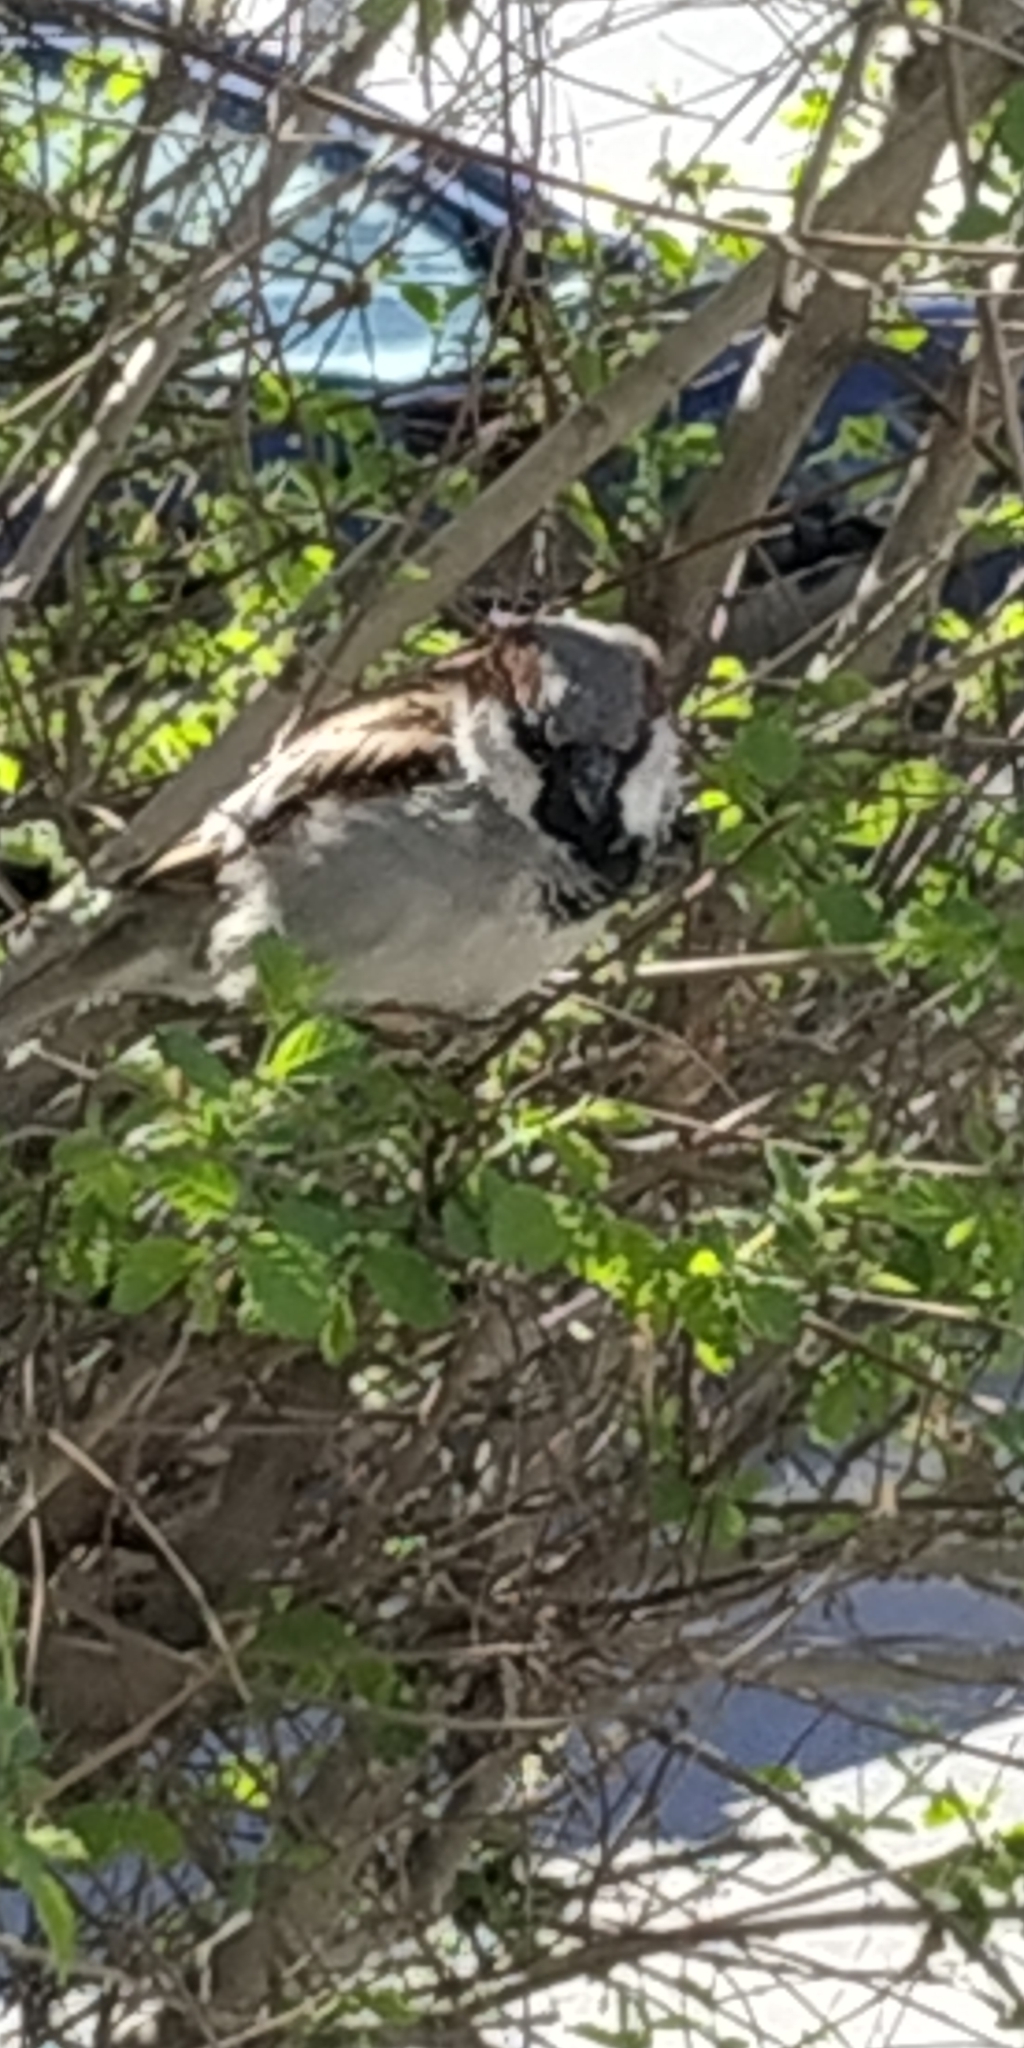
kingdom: Animalia
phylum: Chordata
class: Aves
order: Passeriformes
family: Passeridae
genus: Passer
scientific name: Passer domesticus
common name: House sparrow
